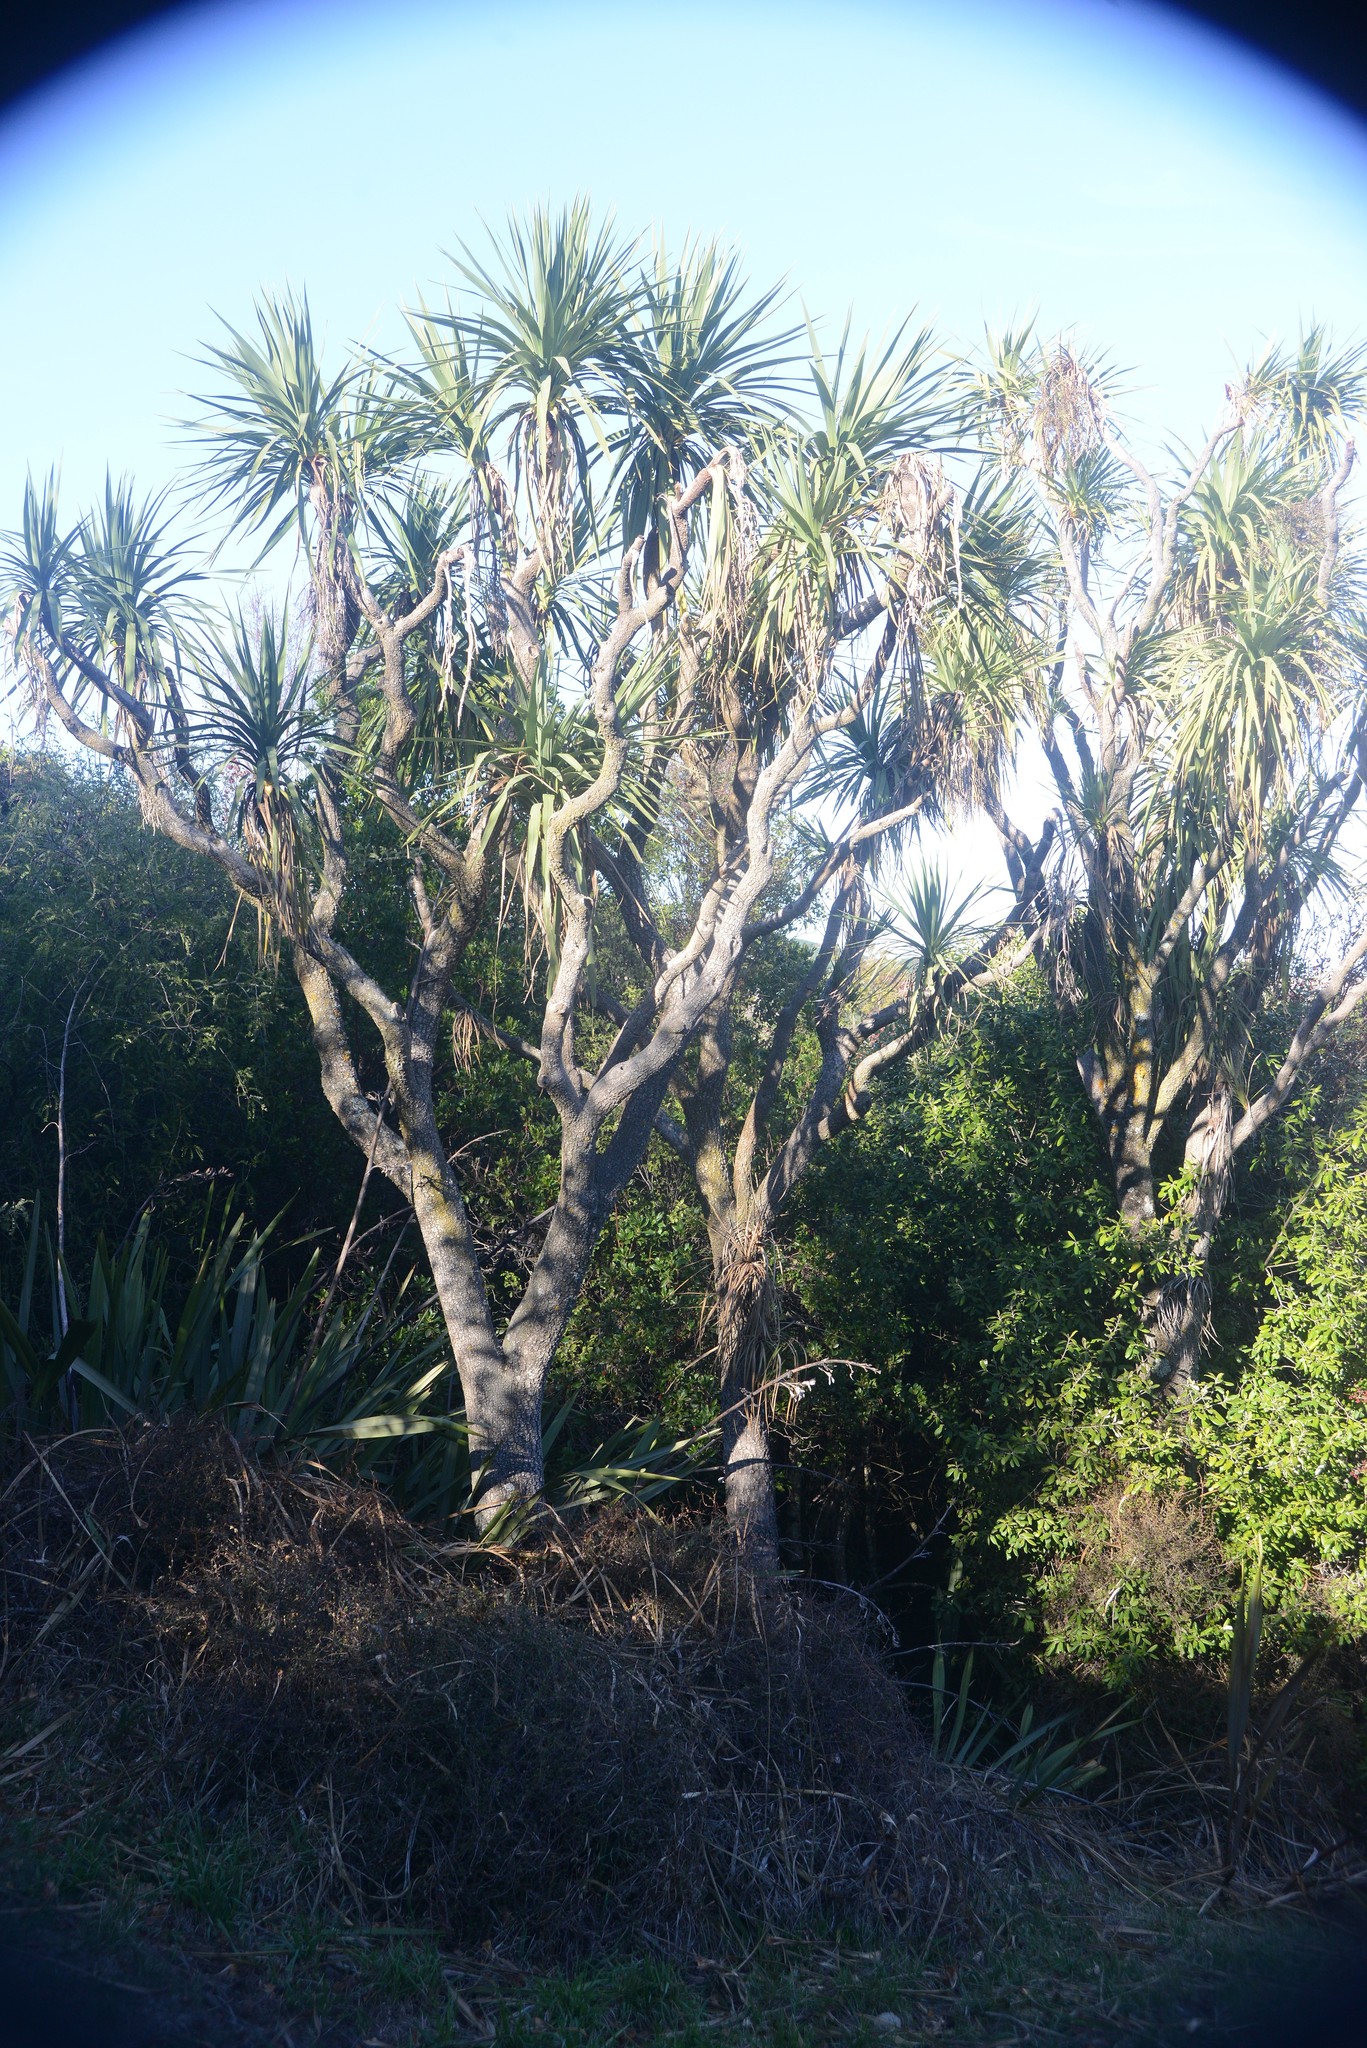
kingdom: Plantae
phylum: Tracheophyta
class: Liliopsida
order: Asparagales
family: Asparagaceae
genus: Cordyline
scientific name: Cordyline australis
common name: Cabbage-palm
